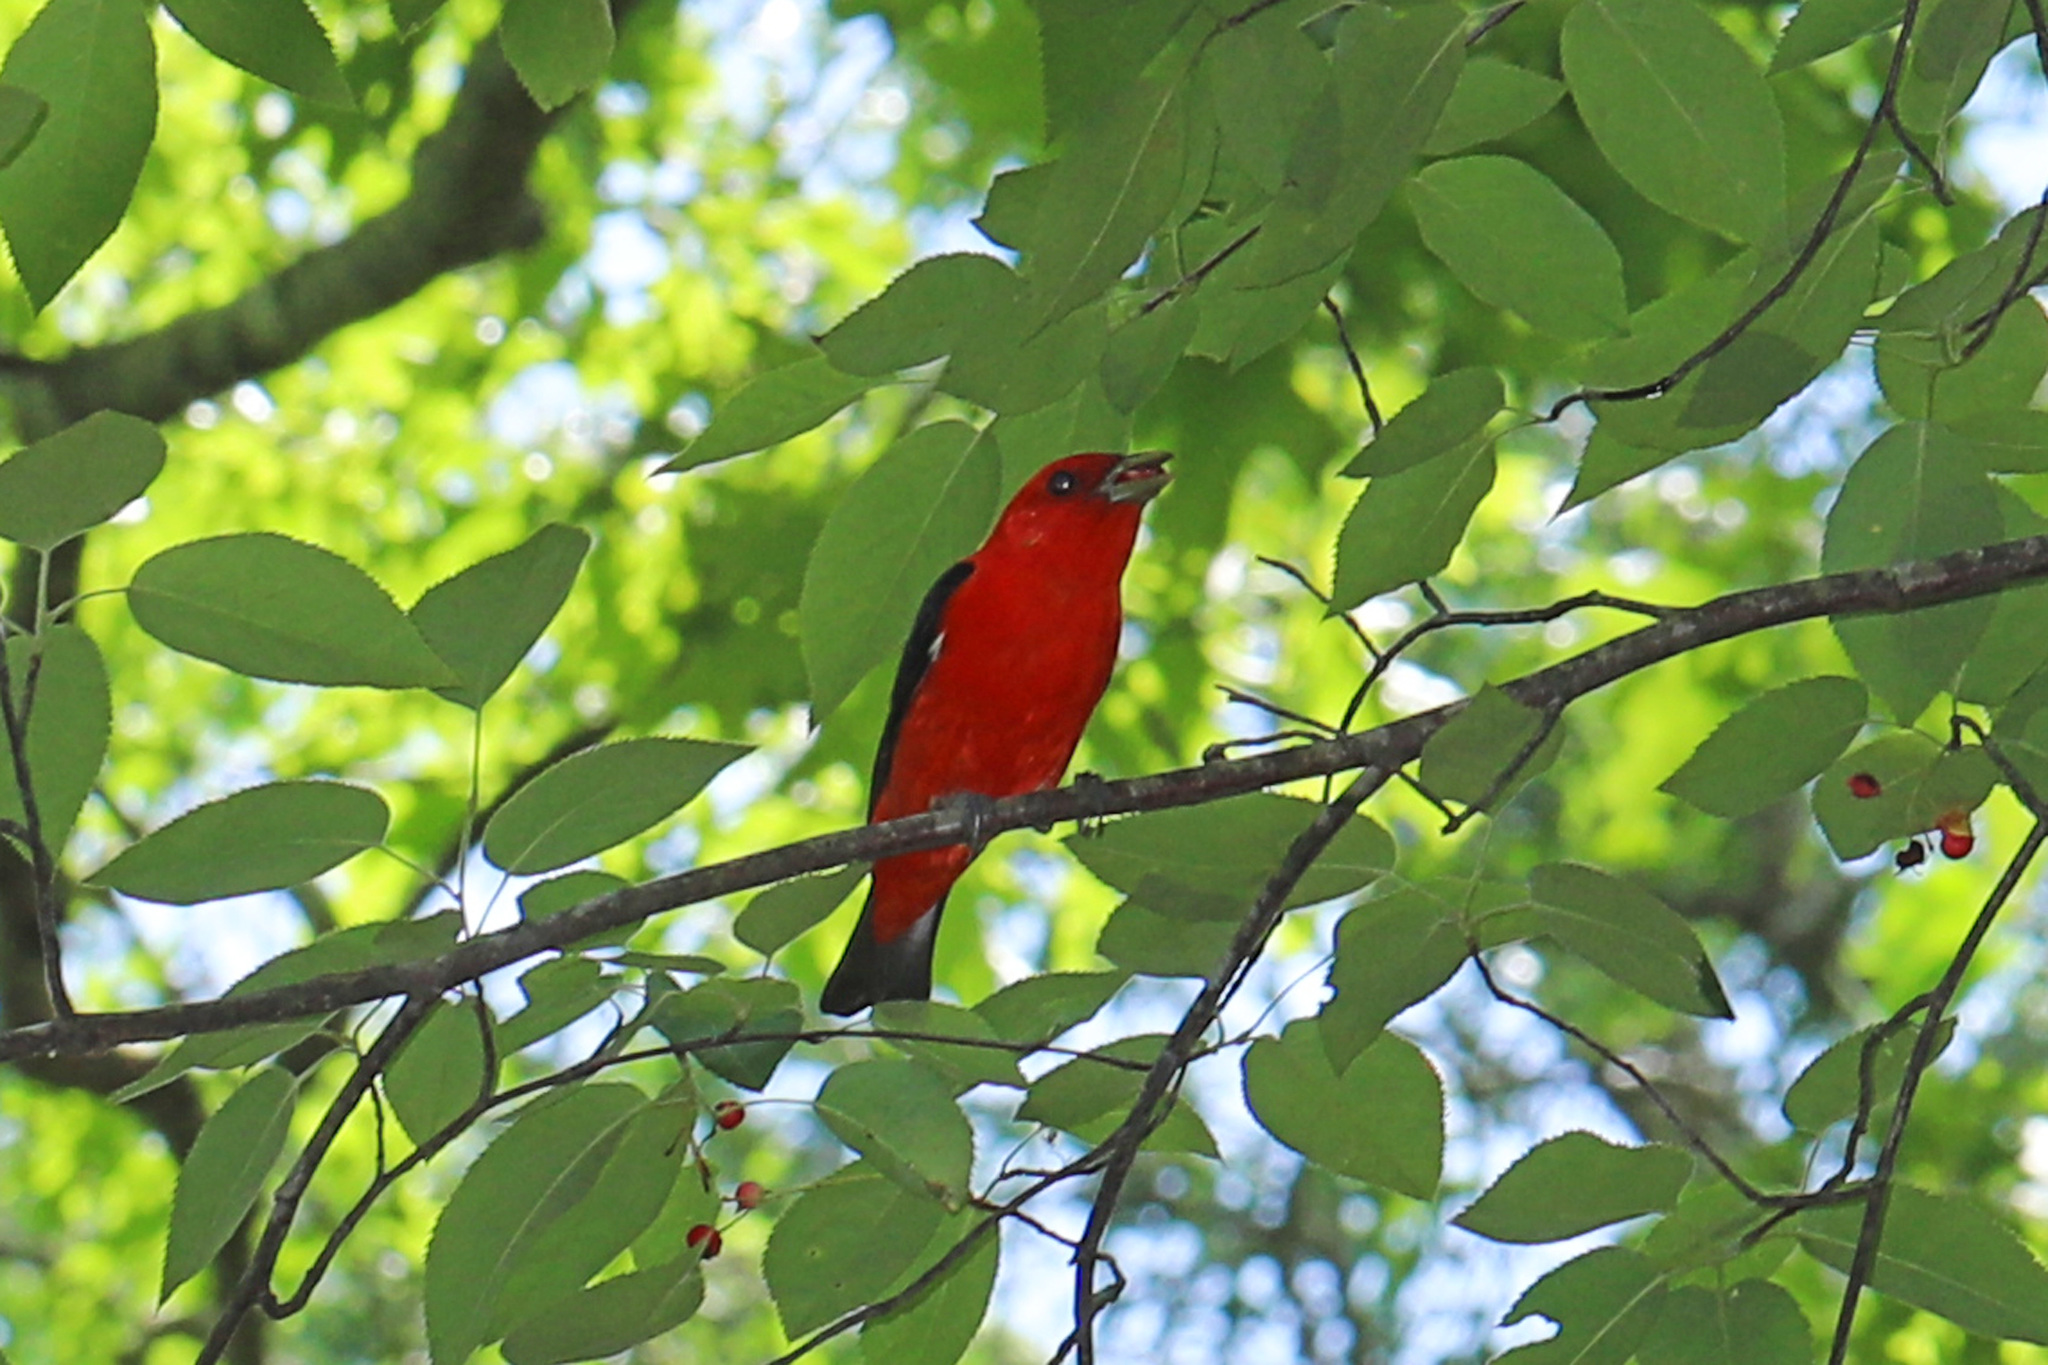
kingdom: Animalia
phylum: Chordata
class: Aves
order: Passeriformes
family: Cardinalidae
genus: Piranga
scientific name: Piranga olivacea
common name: Scarlet tanager
